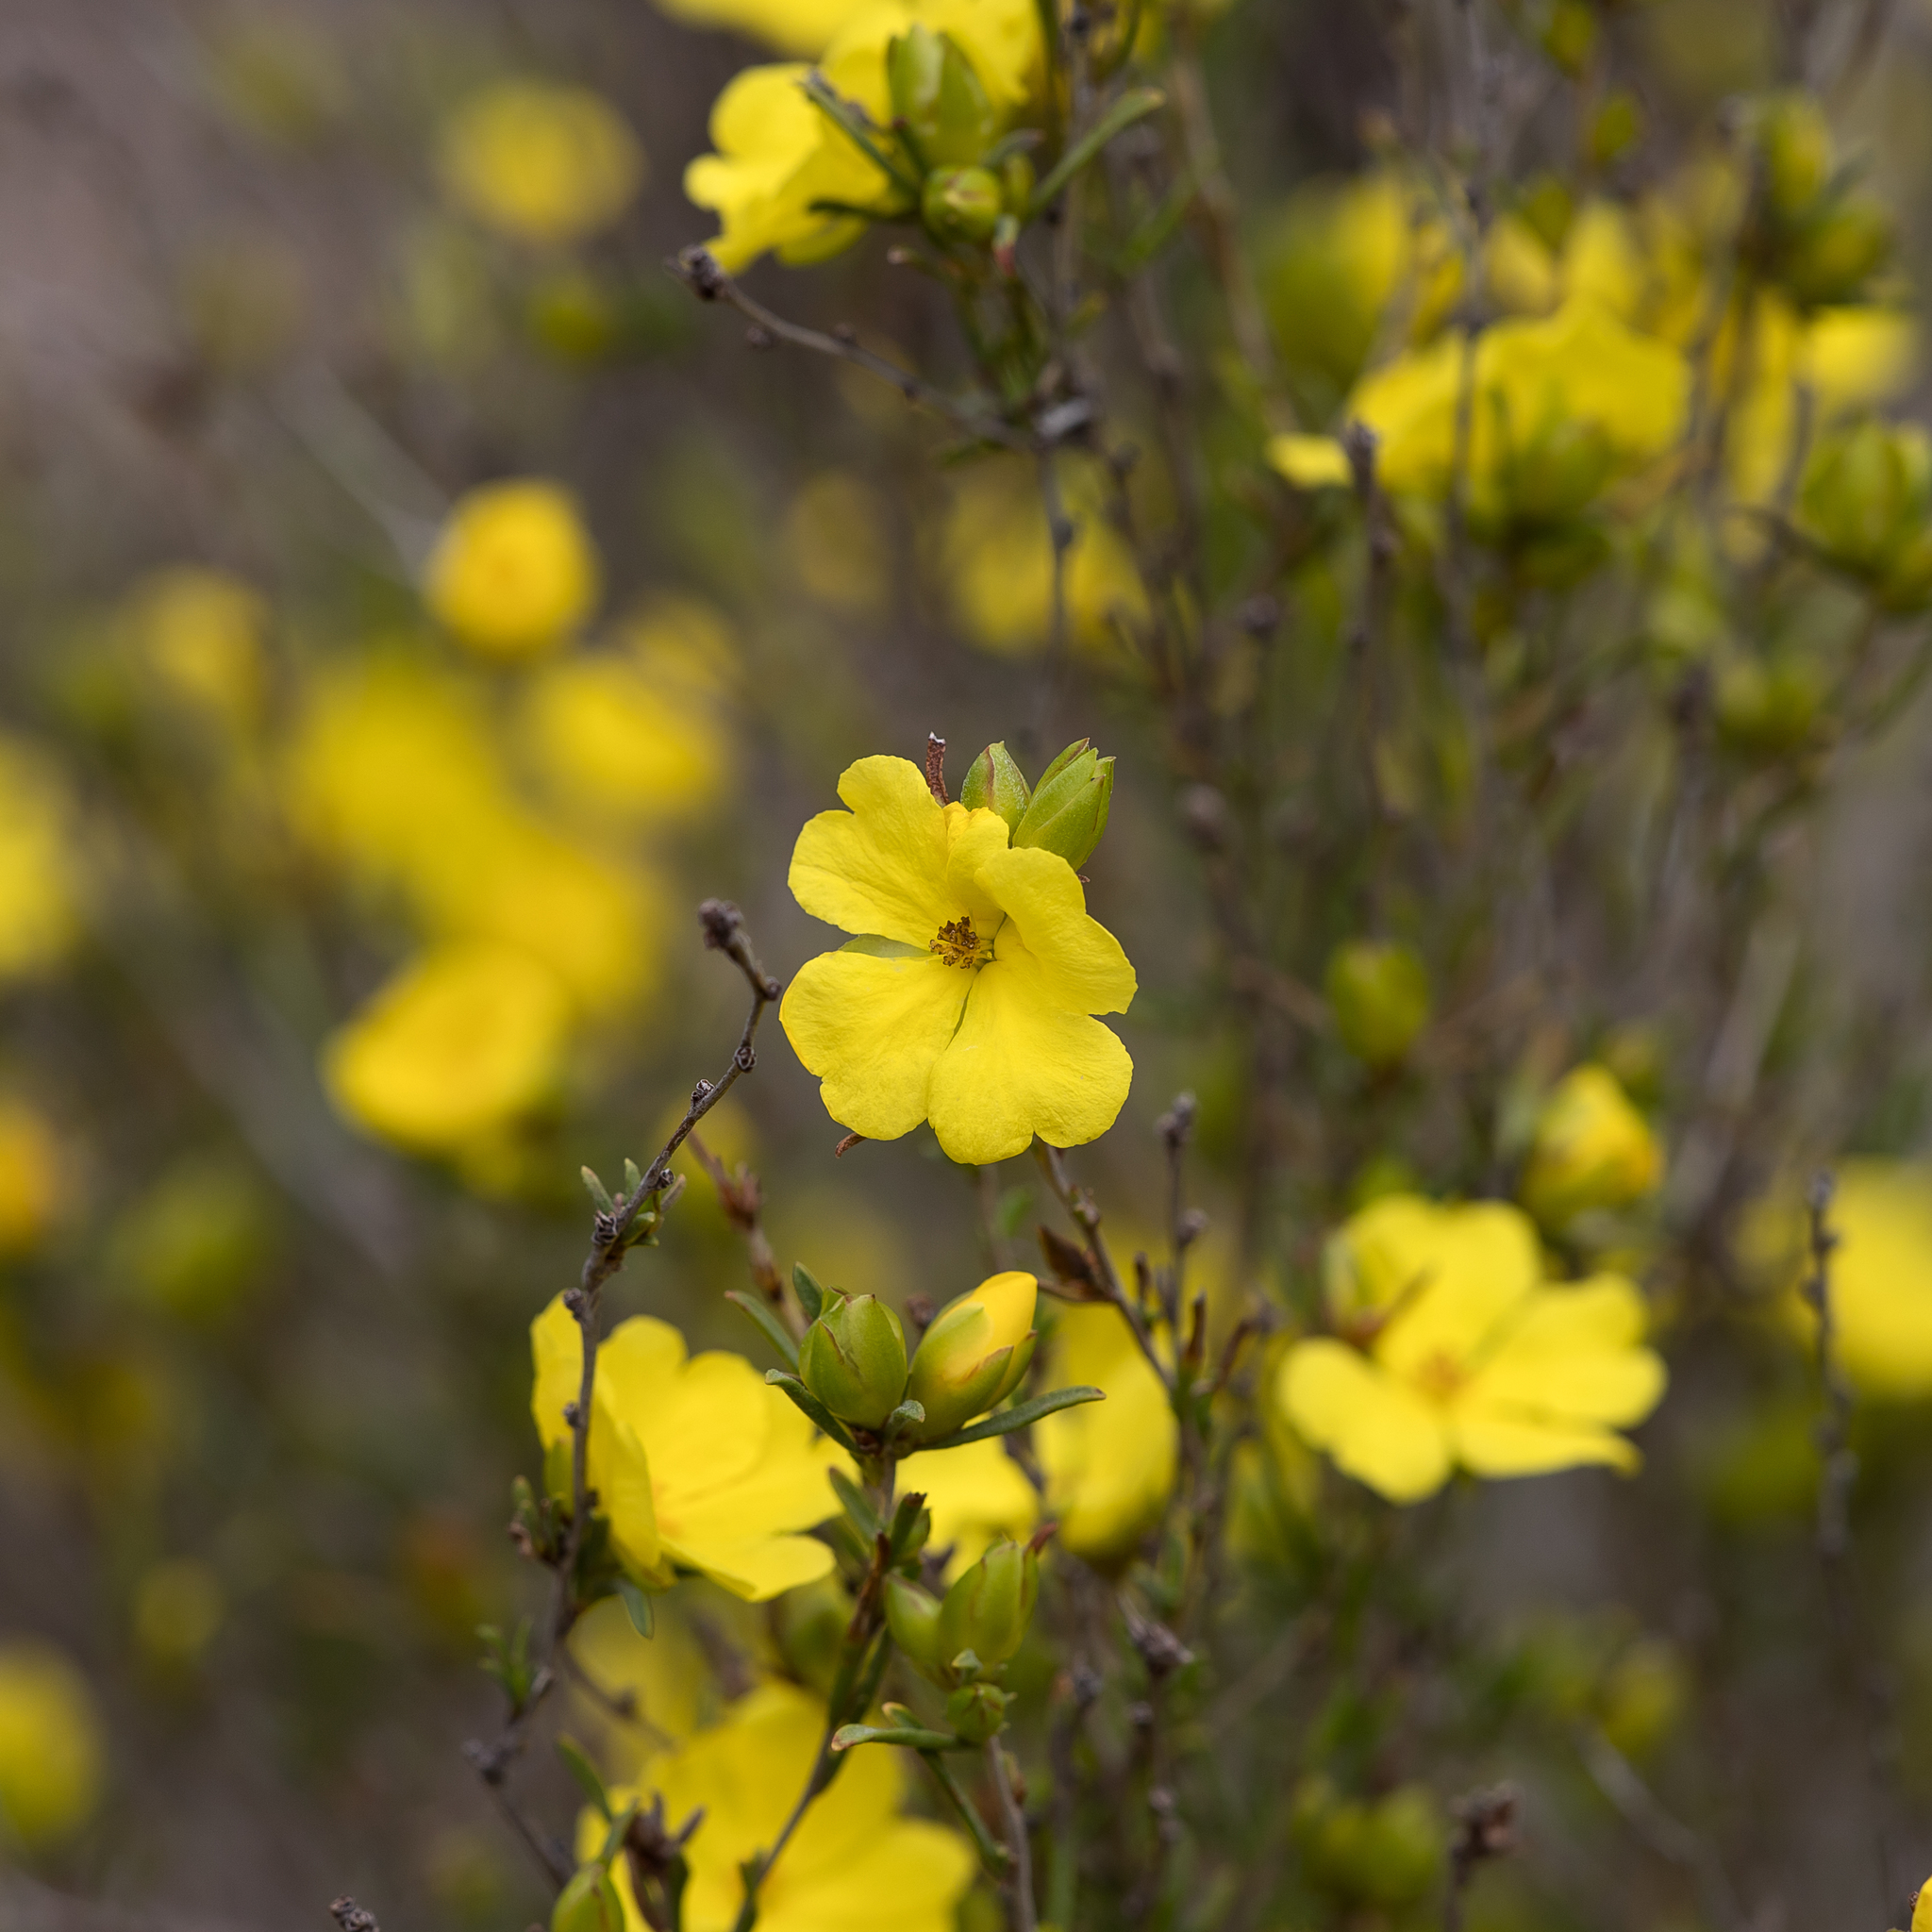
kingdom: Plantae
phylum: Tracheophyta
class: Magnoliopsida
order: Dilleniales
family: Dilleniaceae
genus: Hibbertia
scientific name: Hibbertia virgata
